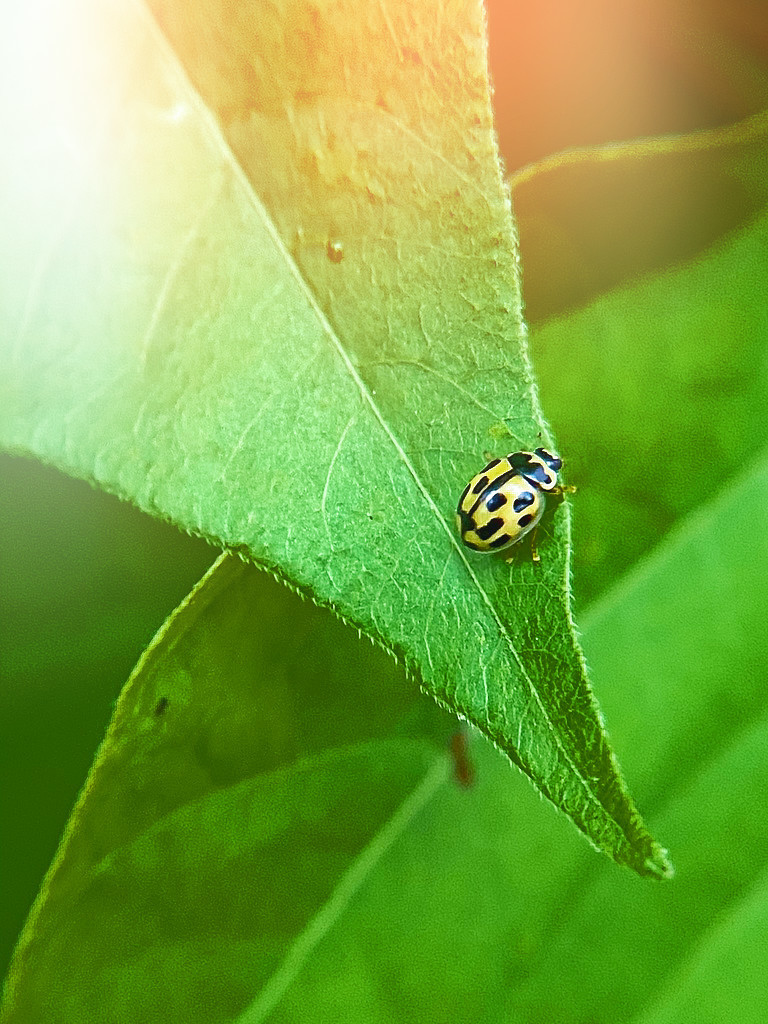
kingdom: Animalia
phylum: Arthropoda
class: Insecta
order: Coleoptera
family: Coccinellidae
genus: Propylaea
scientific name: Propylaea quatuordecimpunctata
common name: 14-spotted ladybird beetle
